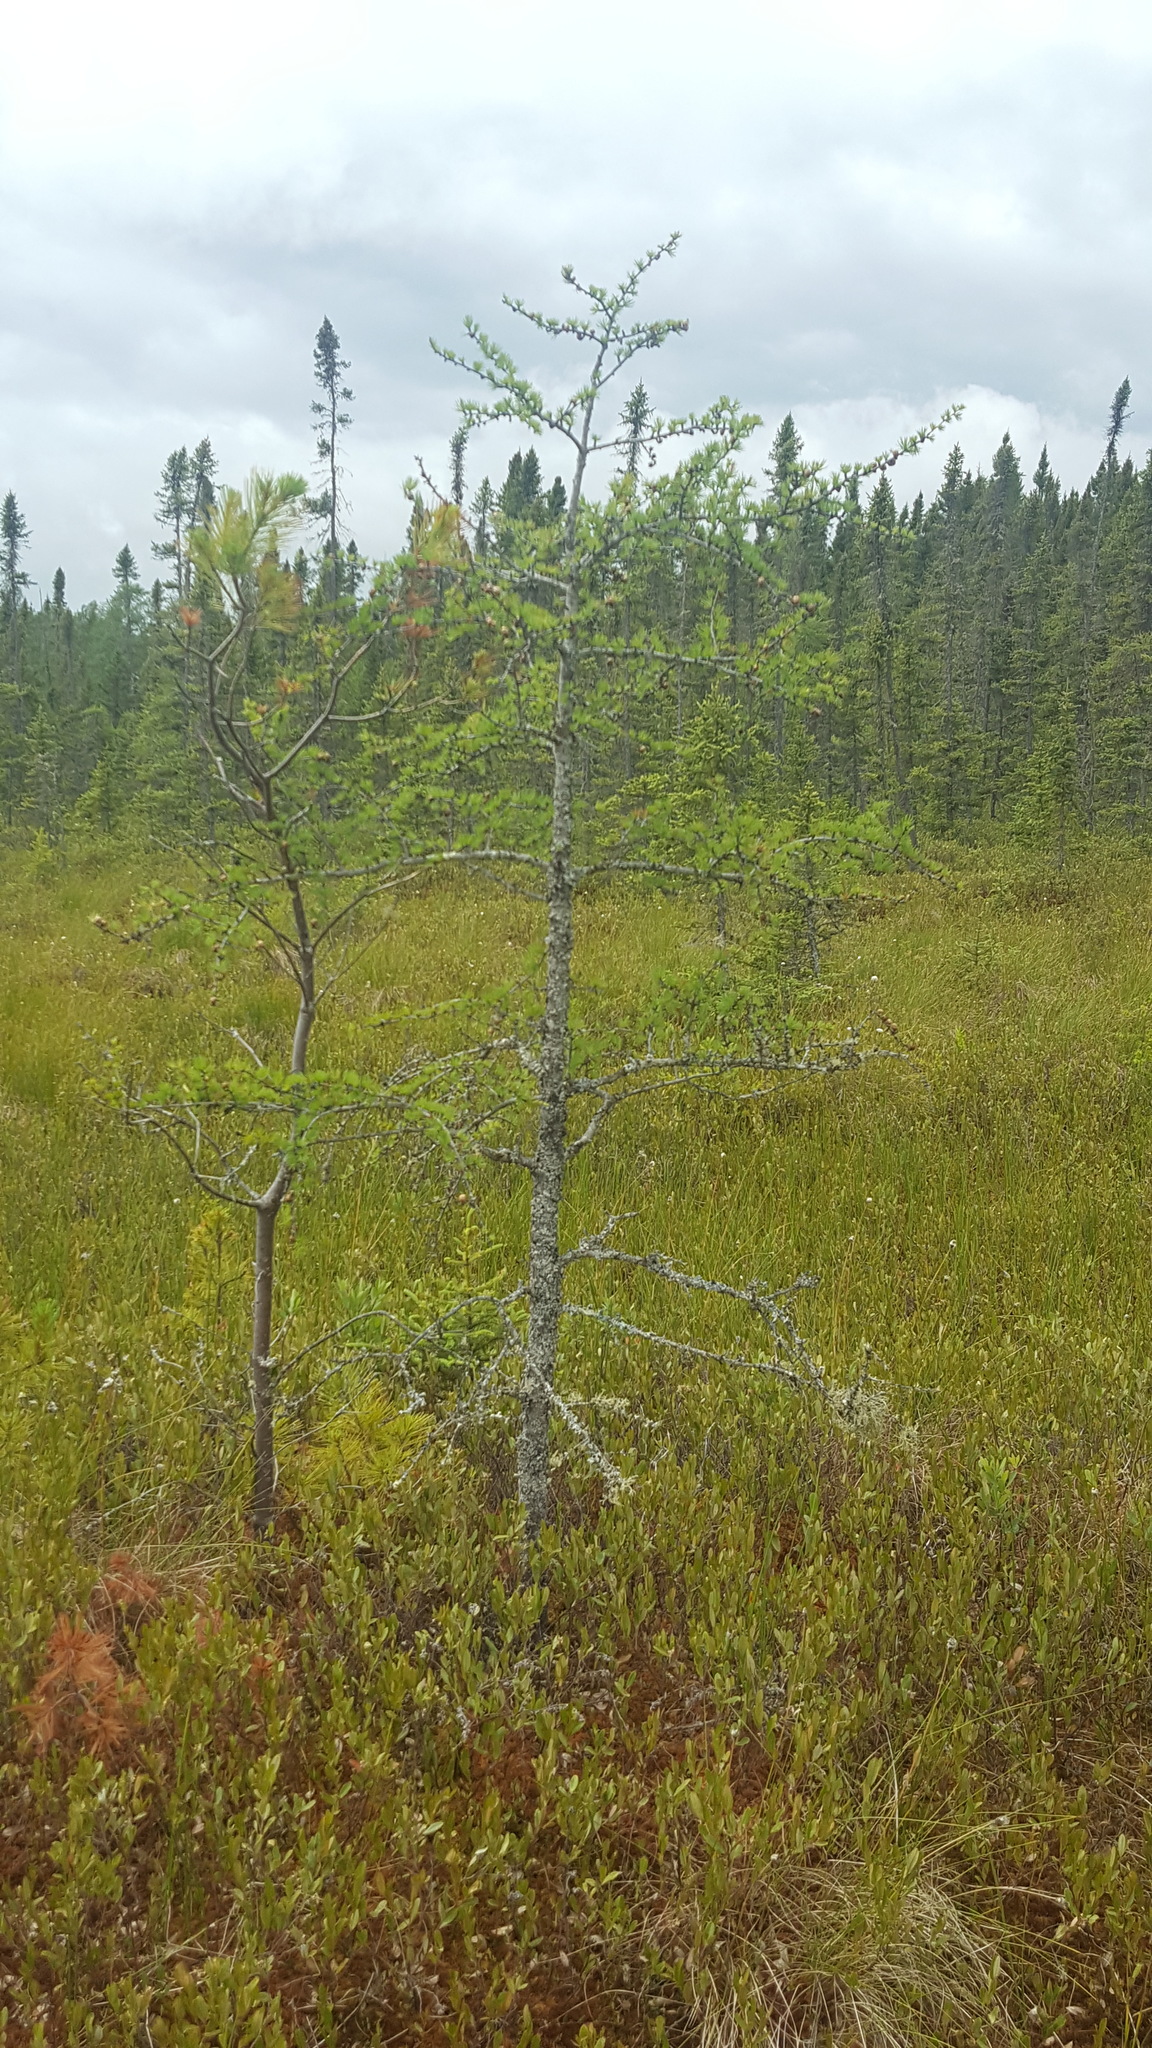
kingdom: Plantae
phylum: Tracheophyta
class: Pinopsida
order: Pinales
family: Pinaceae
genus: Larix
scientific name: Larix laricina
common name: American larch
